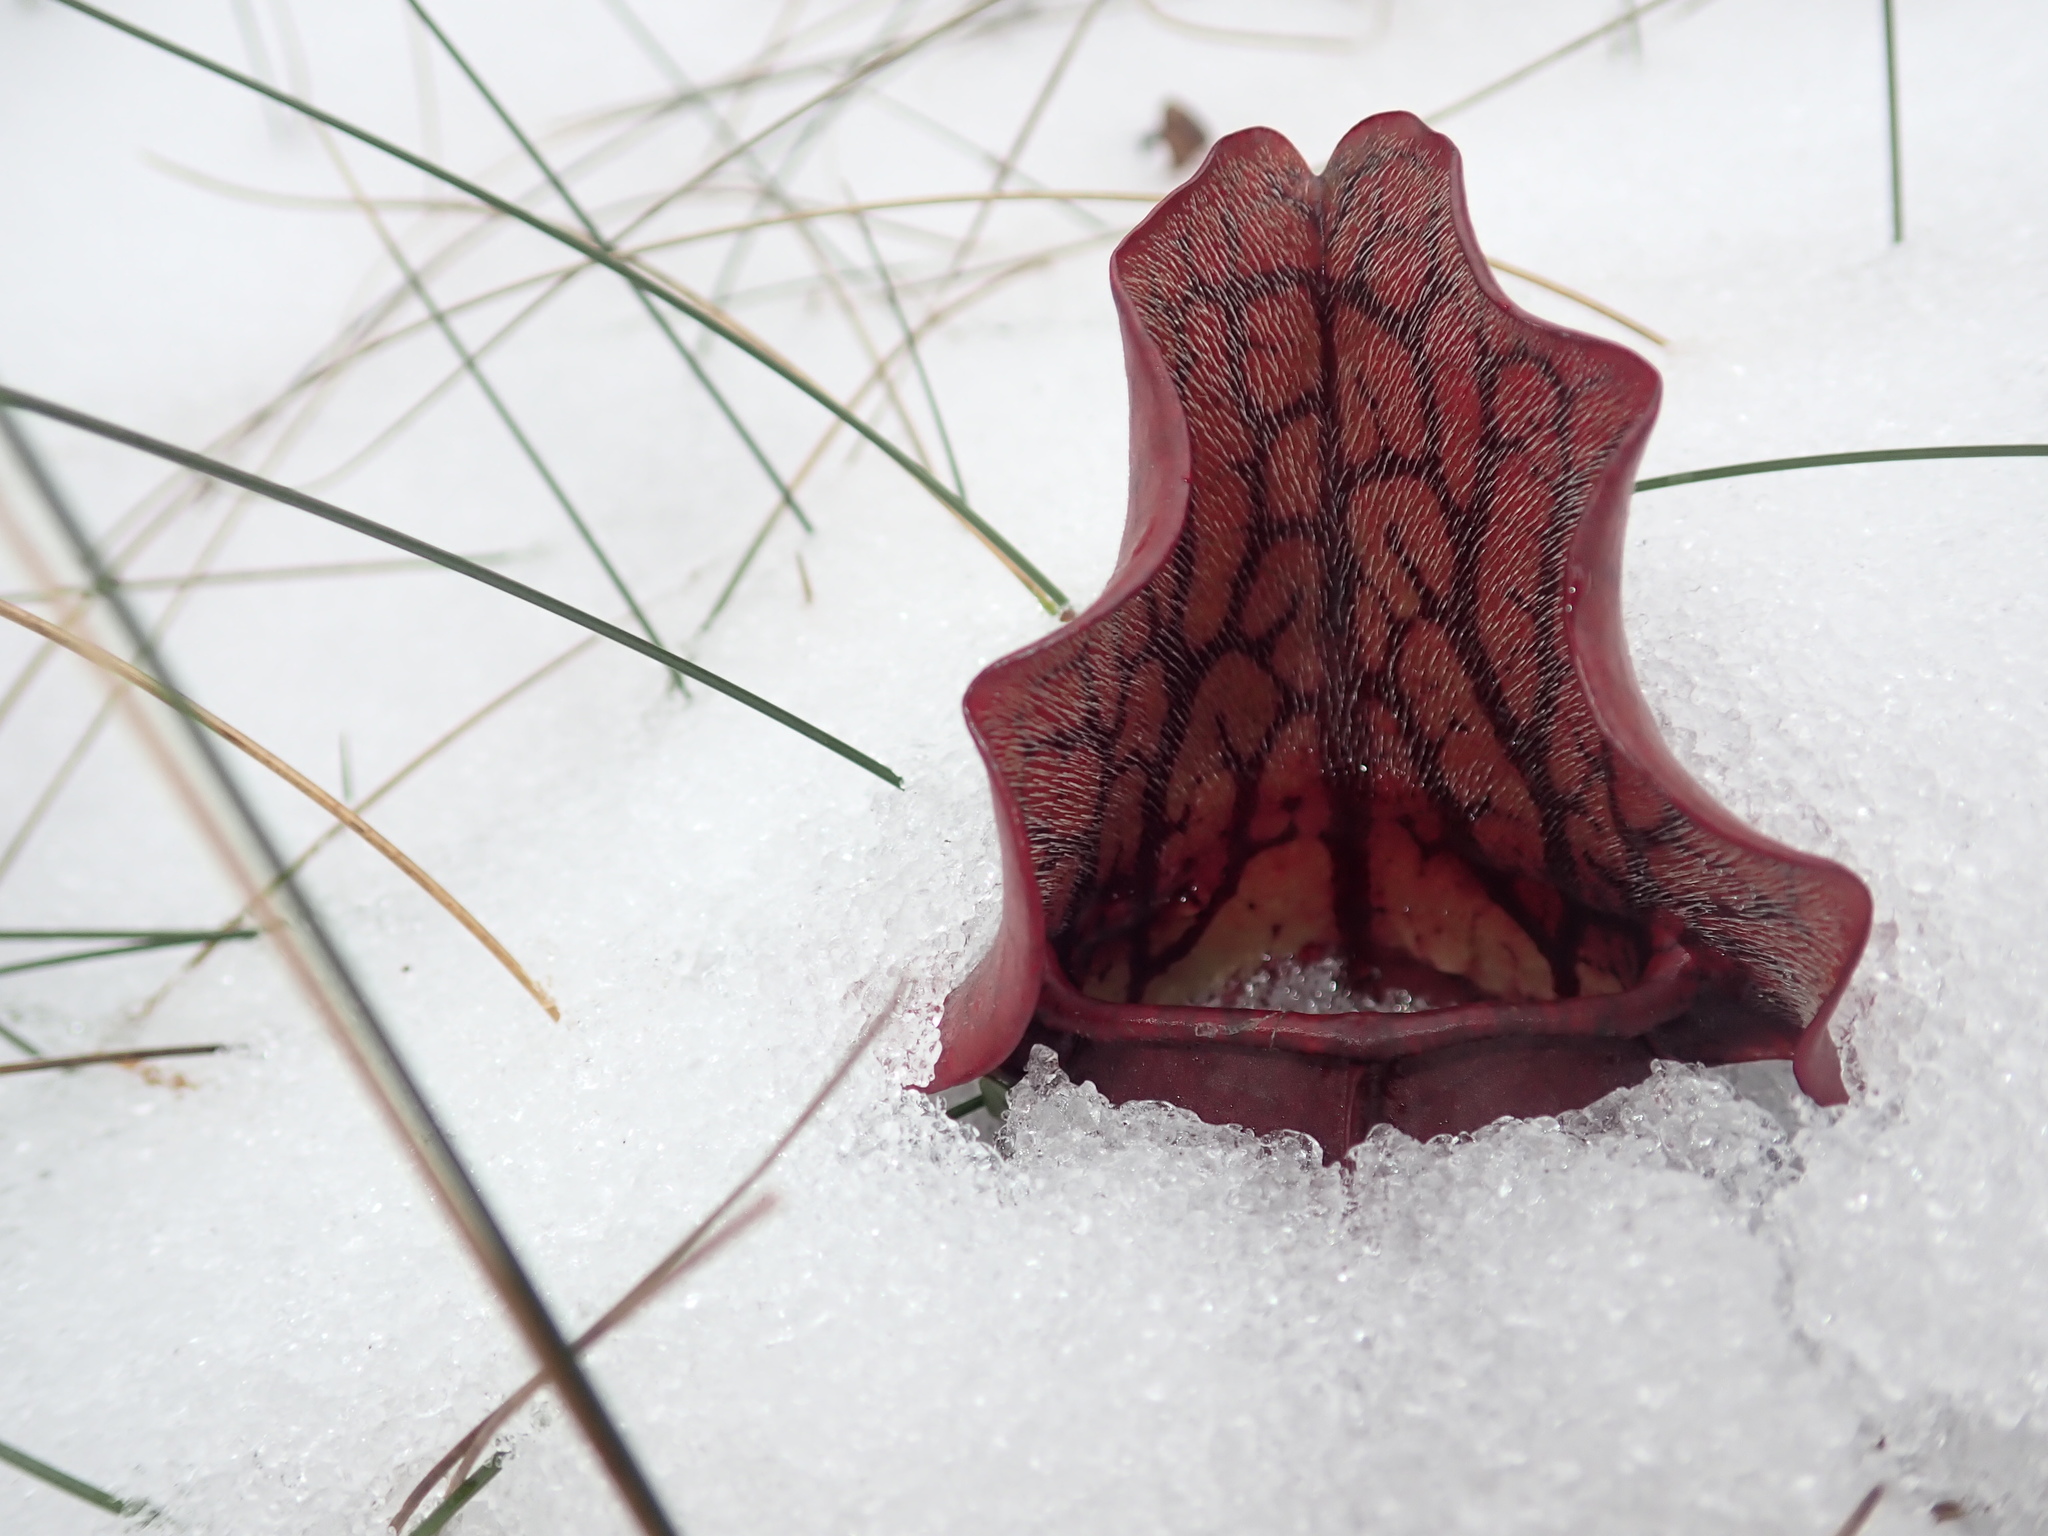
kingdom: Plantae
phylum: Tracheophyta
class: Magnoliopsida
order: Ericales
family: Sarraceniaceae
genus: Sarracenia
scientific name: Sarracenia purpurea
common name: Pitcherplant
